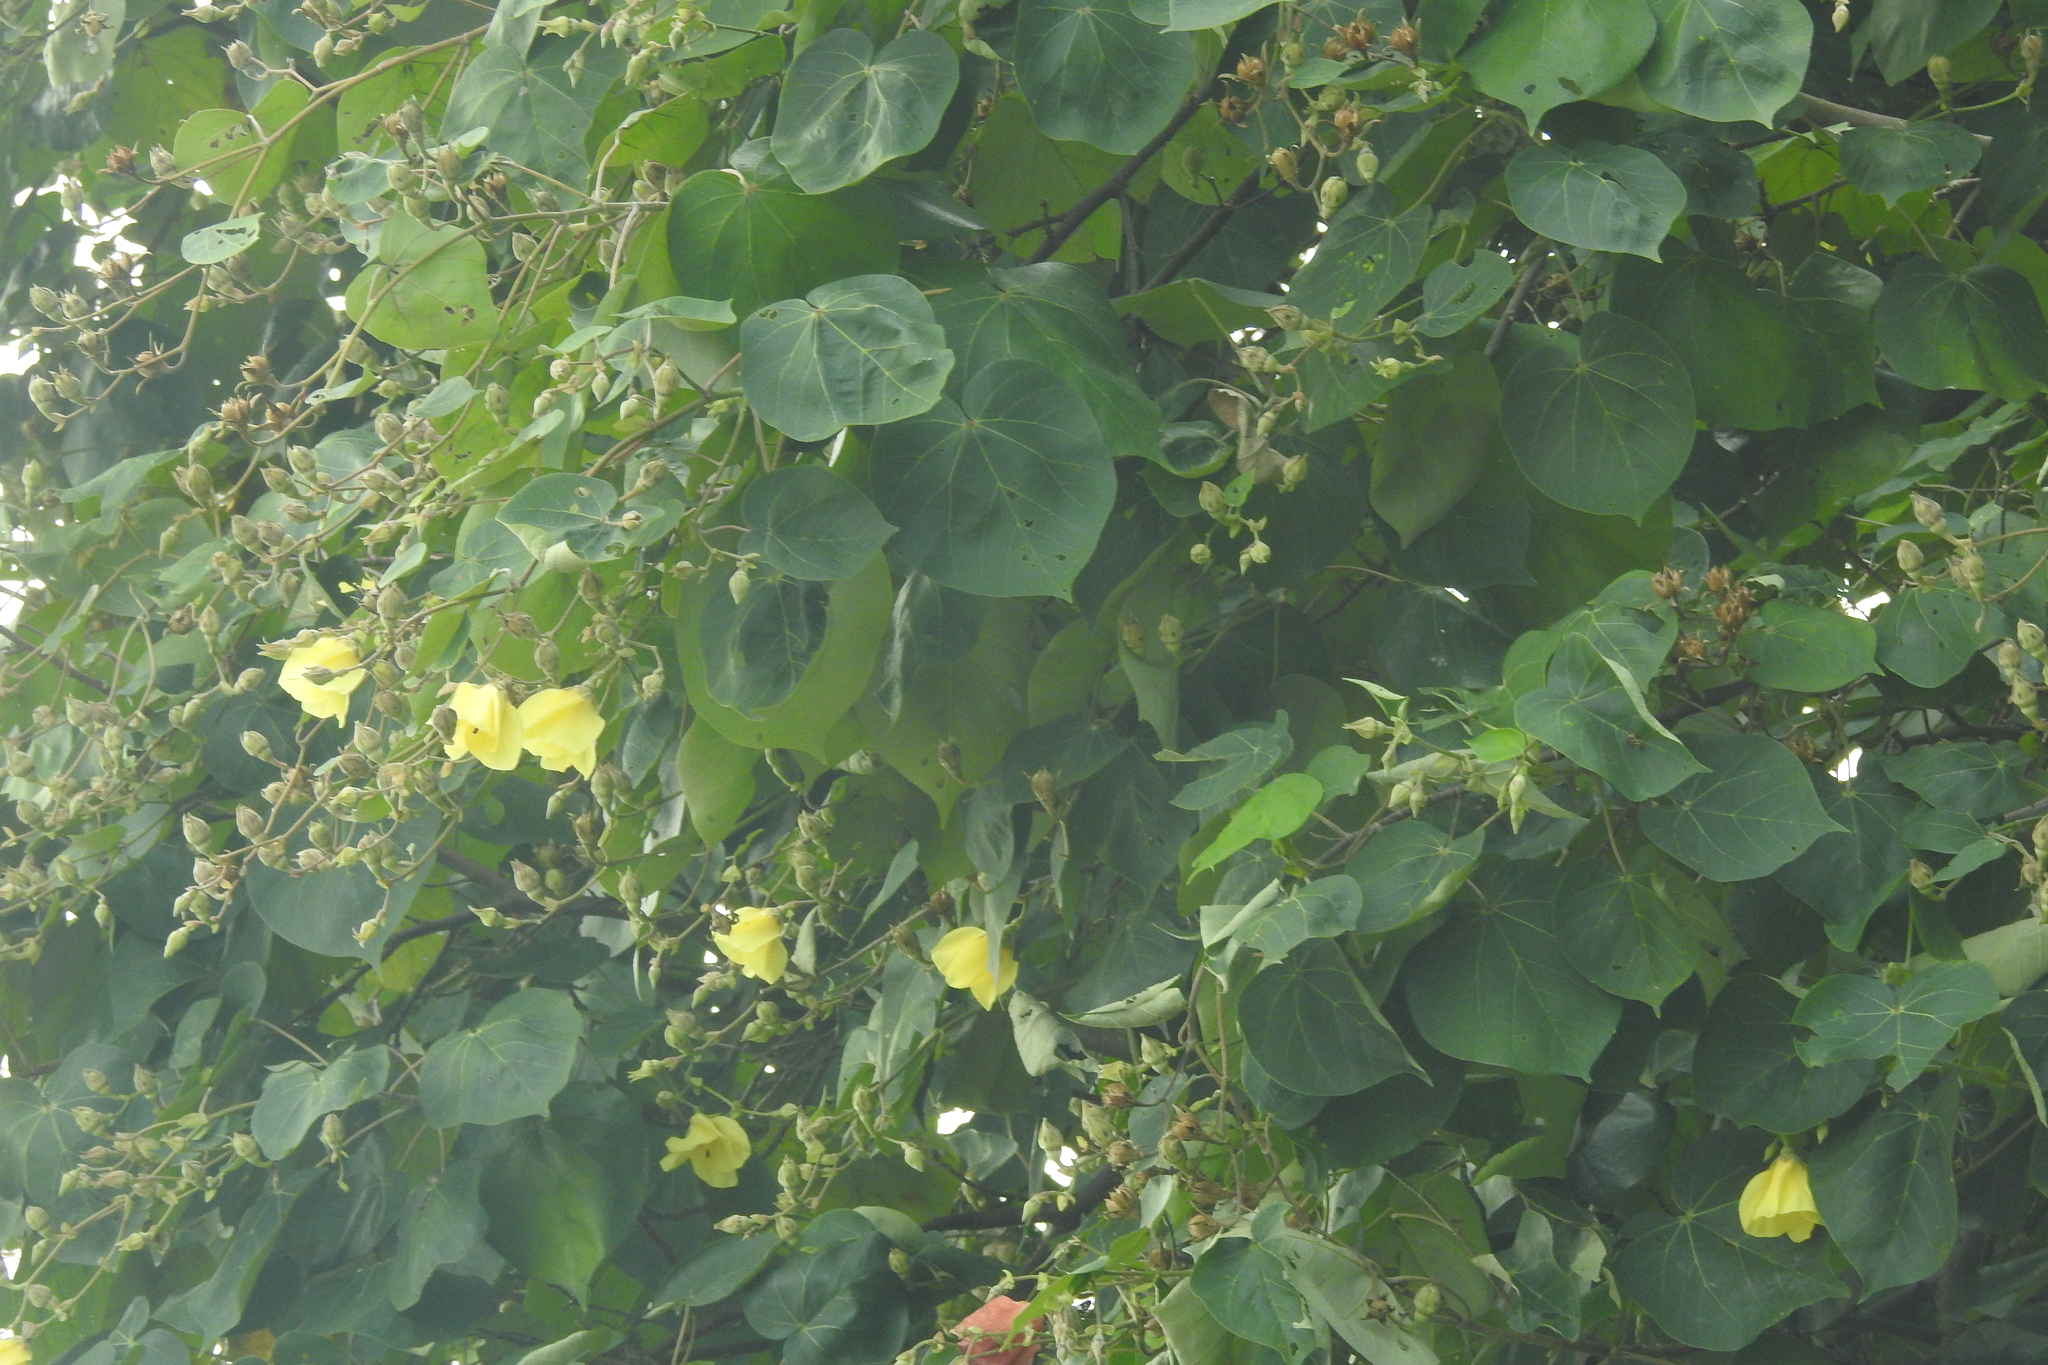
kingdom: Plantae
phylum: Tracheophyta
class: Magnoliopsida
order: Malvales
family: Malvaceae
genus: Talipariti
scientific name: Talipariti tiliaceum
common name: Sea hibiscus
